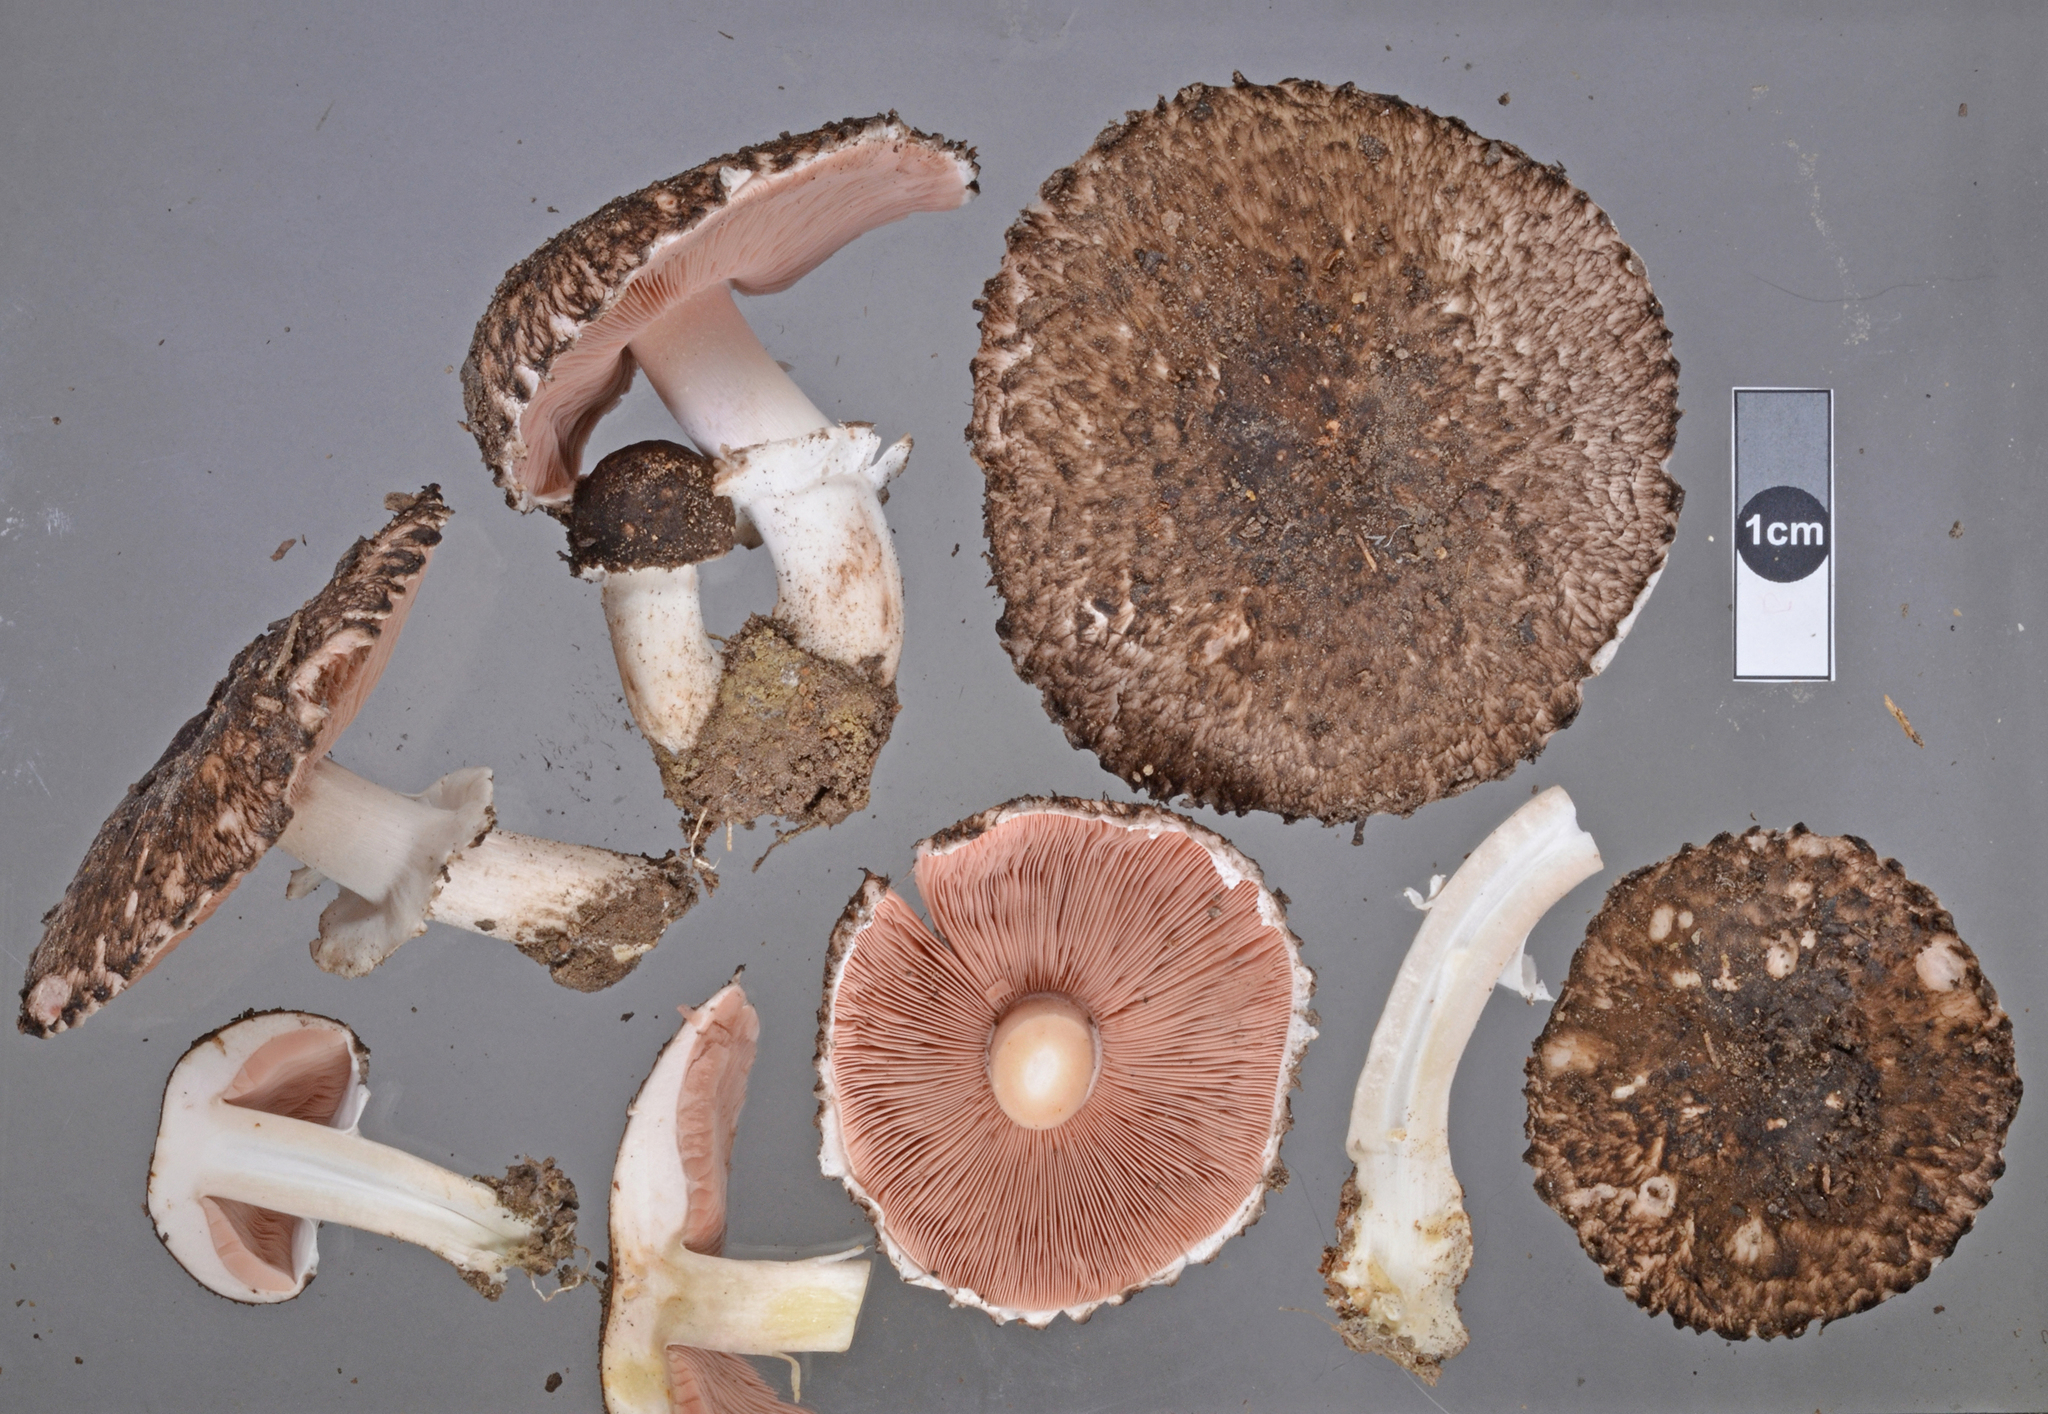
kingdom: Fungi
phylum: Basidiomycota
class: Agaricomycetes
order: Agaricales
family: Agaricaceae
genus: Agaricus
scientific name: Agaricus
